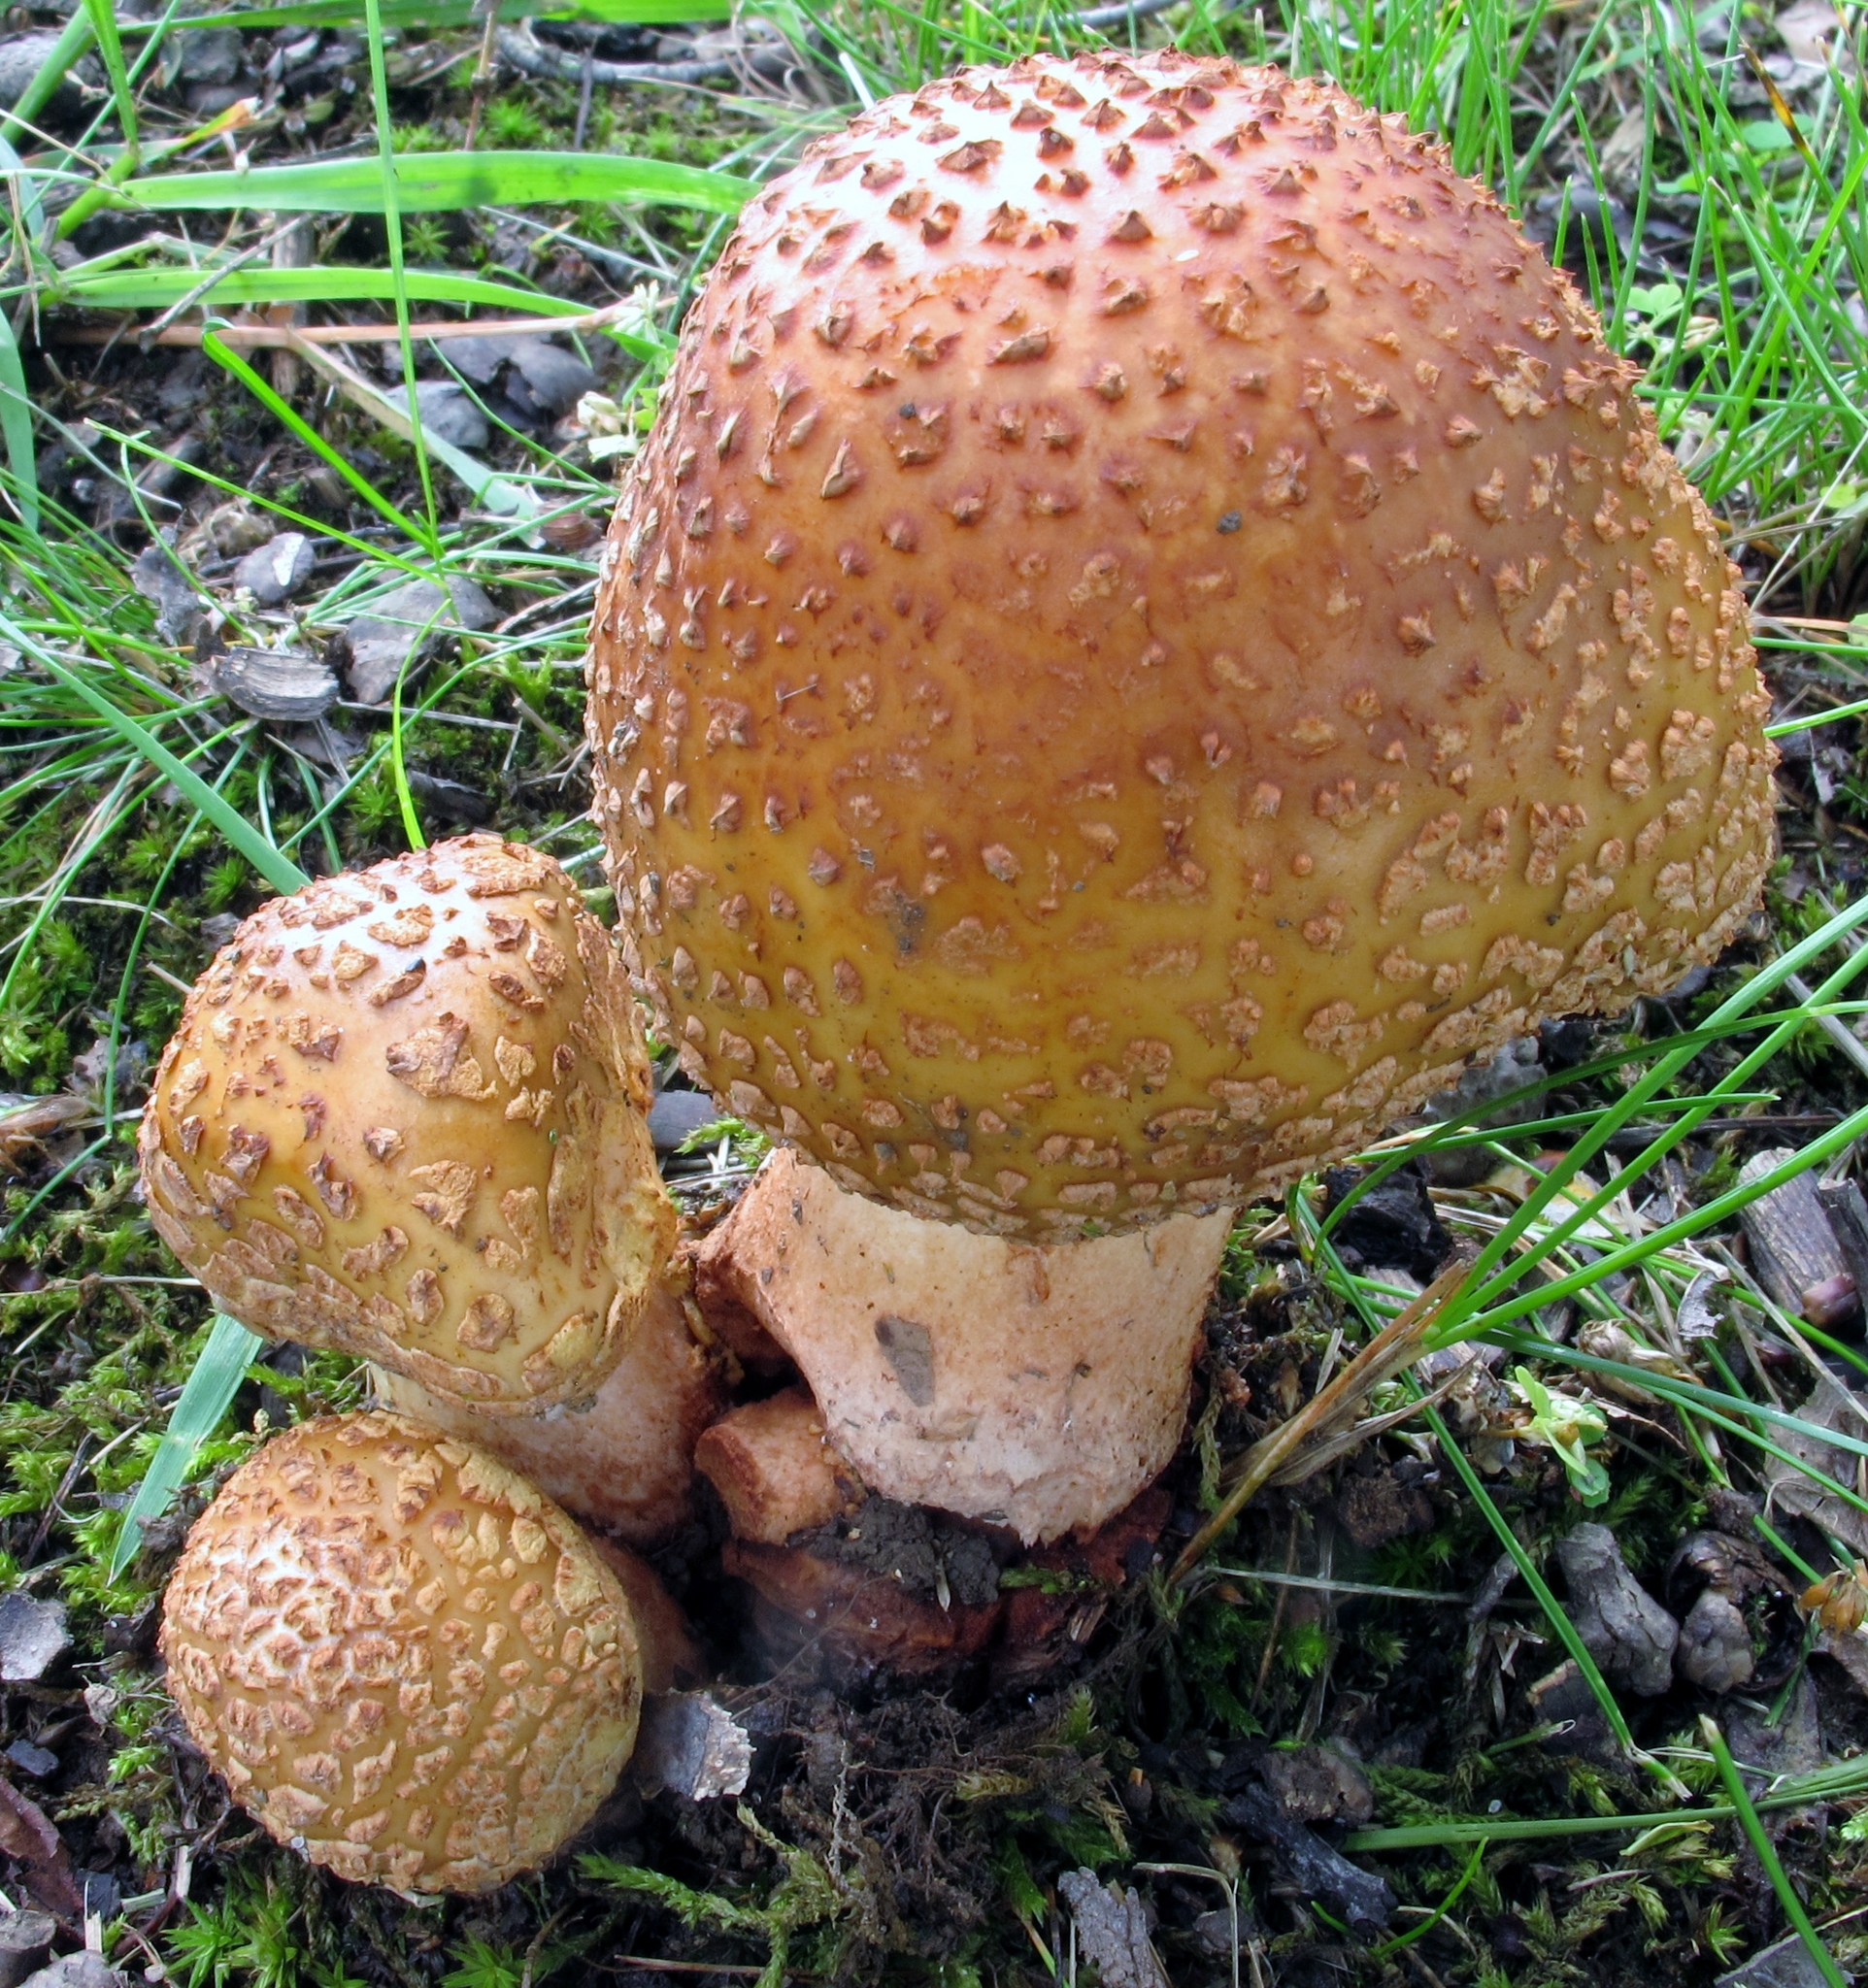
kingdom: Fungi
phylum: Basidiomycota
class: Agaricomycetes
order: Agaricales
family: Amanitaceae
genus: Amanita
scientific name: Amanita rubescens
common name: Blusher
